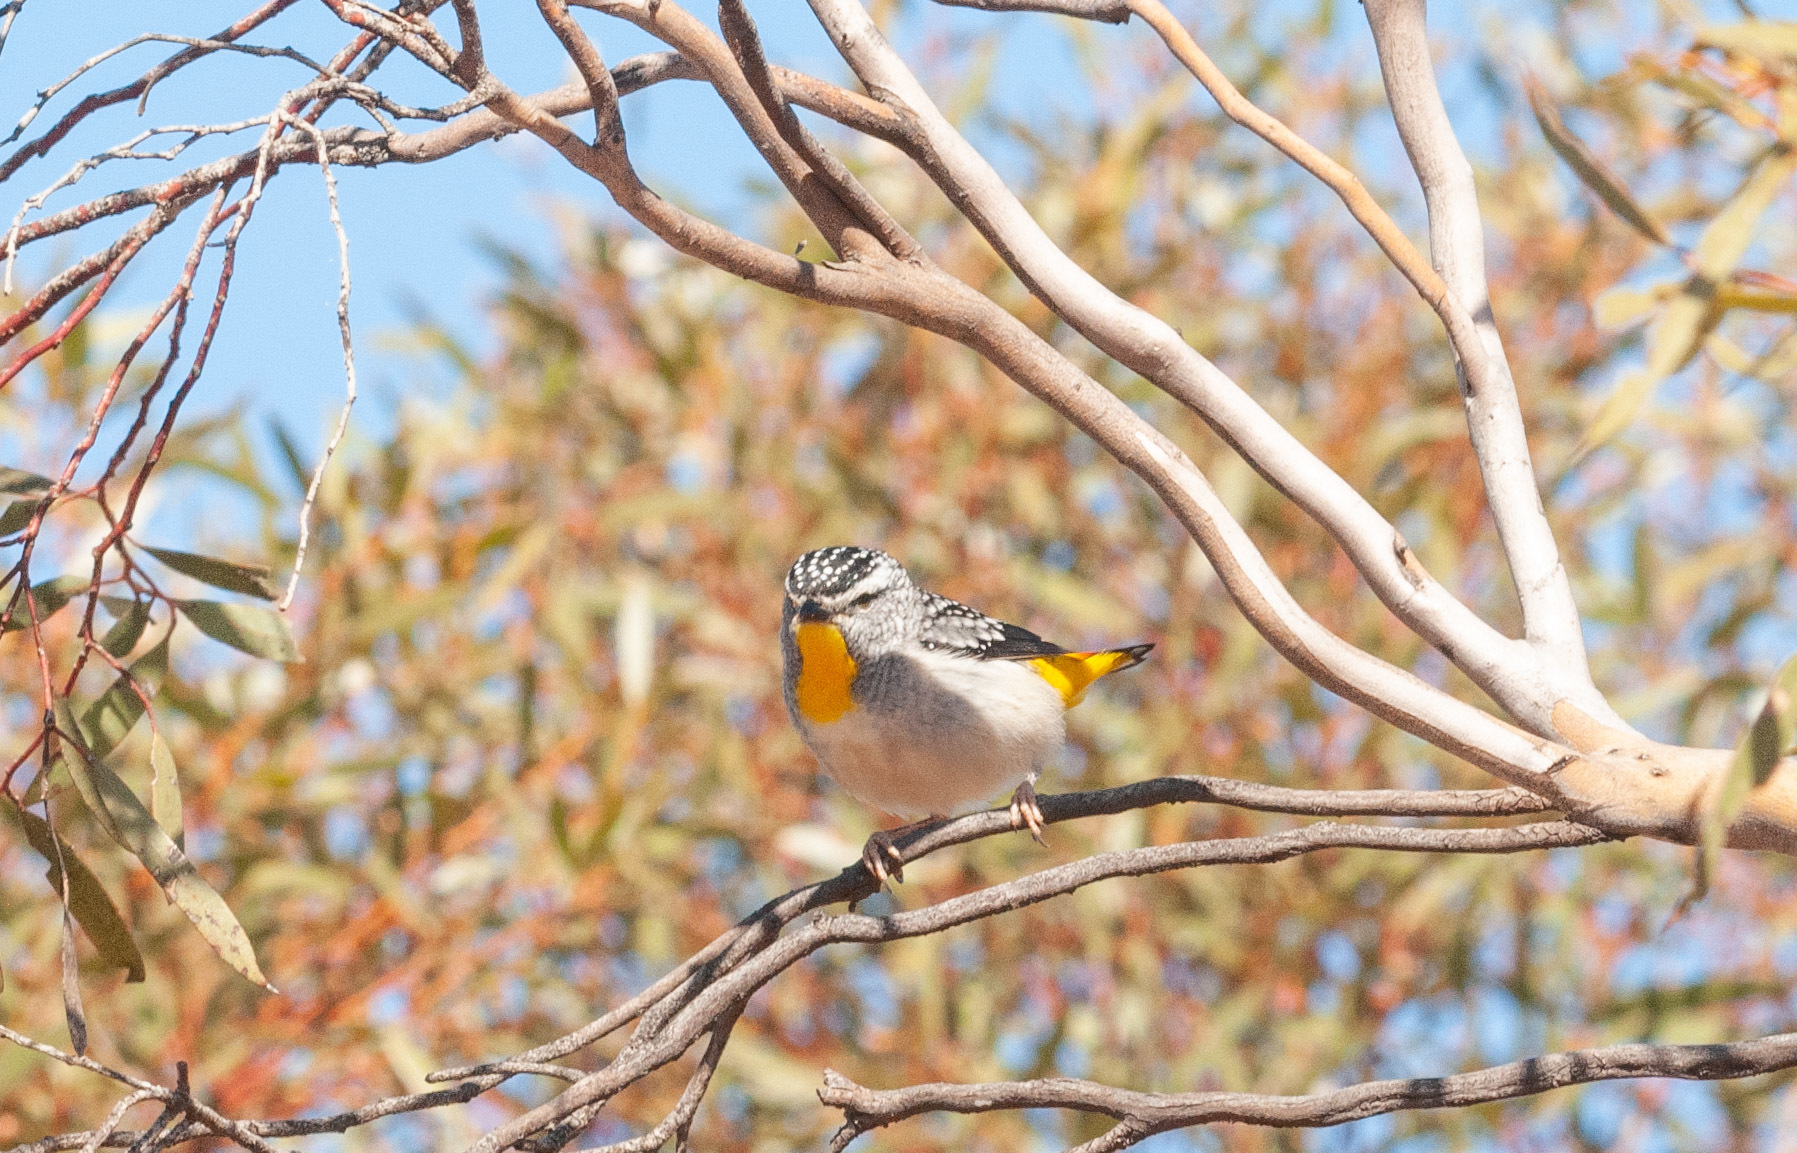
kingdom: Animalia
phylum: Chordata
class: Aves
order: Passeriformes
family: Pardalotidae
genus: Pardalotus
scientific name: Pardalotus punctatus
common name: Spotted pardalote
